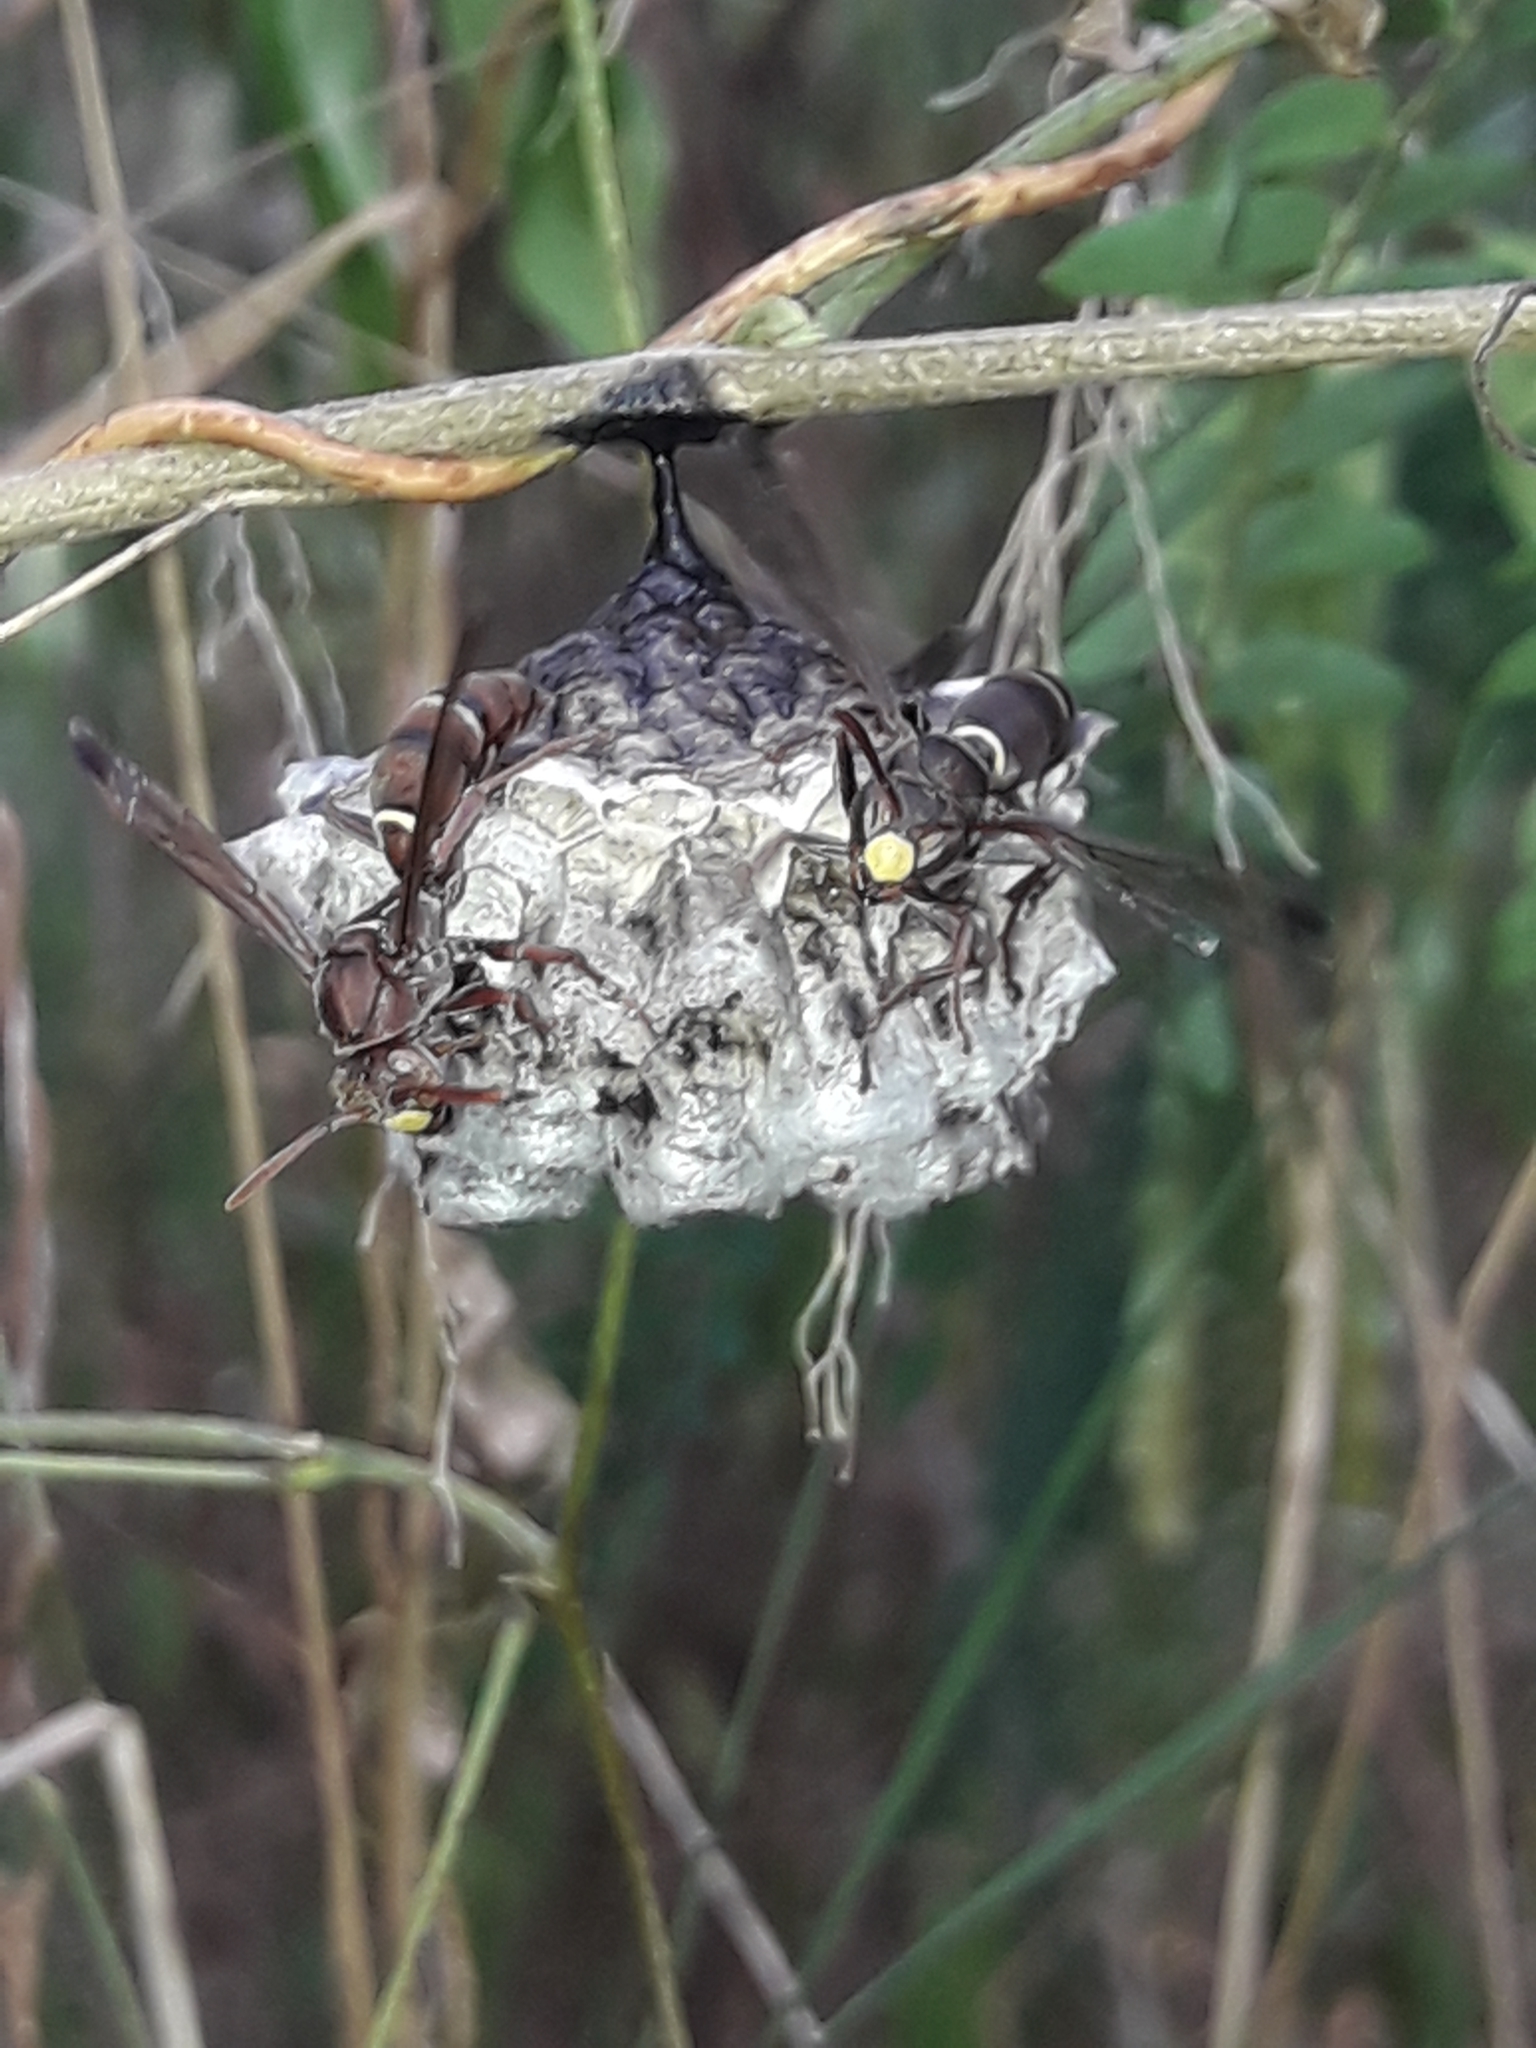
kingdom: Animalia
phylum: Arthropoda
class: Insecta
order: Hymenoptera
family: Eumenidae
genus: Polistes
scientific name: Polistes stigma
